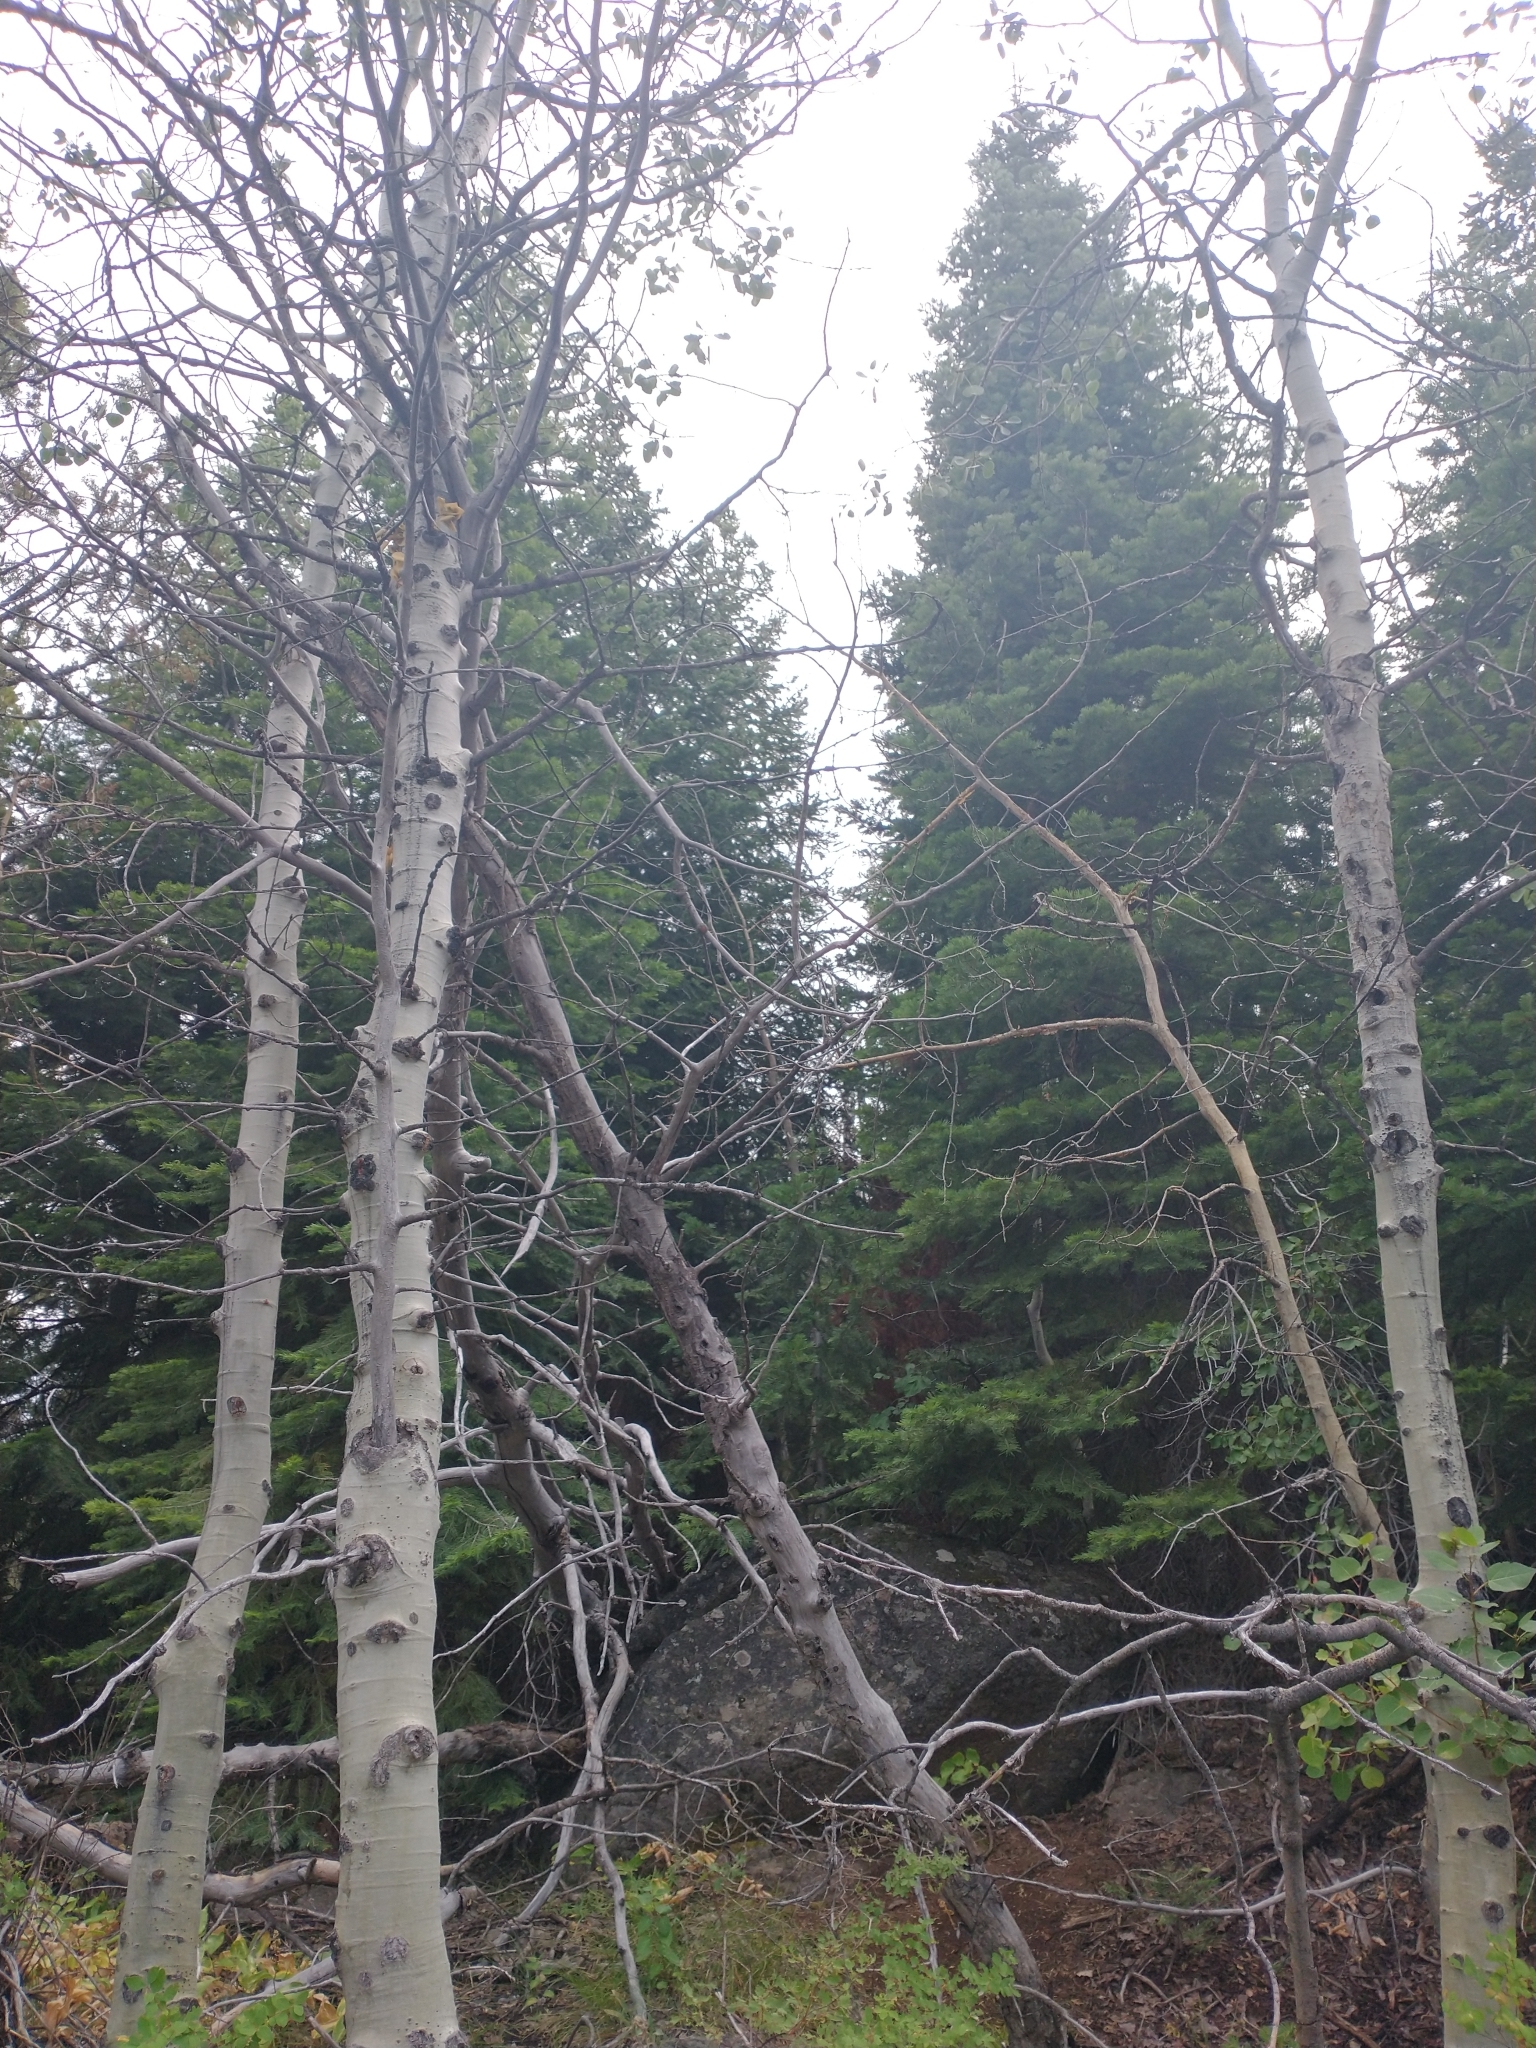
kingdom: Plantae
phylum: Tracheophyta
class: Magnoliopsida
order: Malpighiales
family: Salicaceae
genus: Populus
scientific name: Populus tremuloides
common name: Quaking aspen
